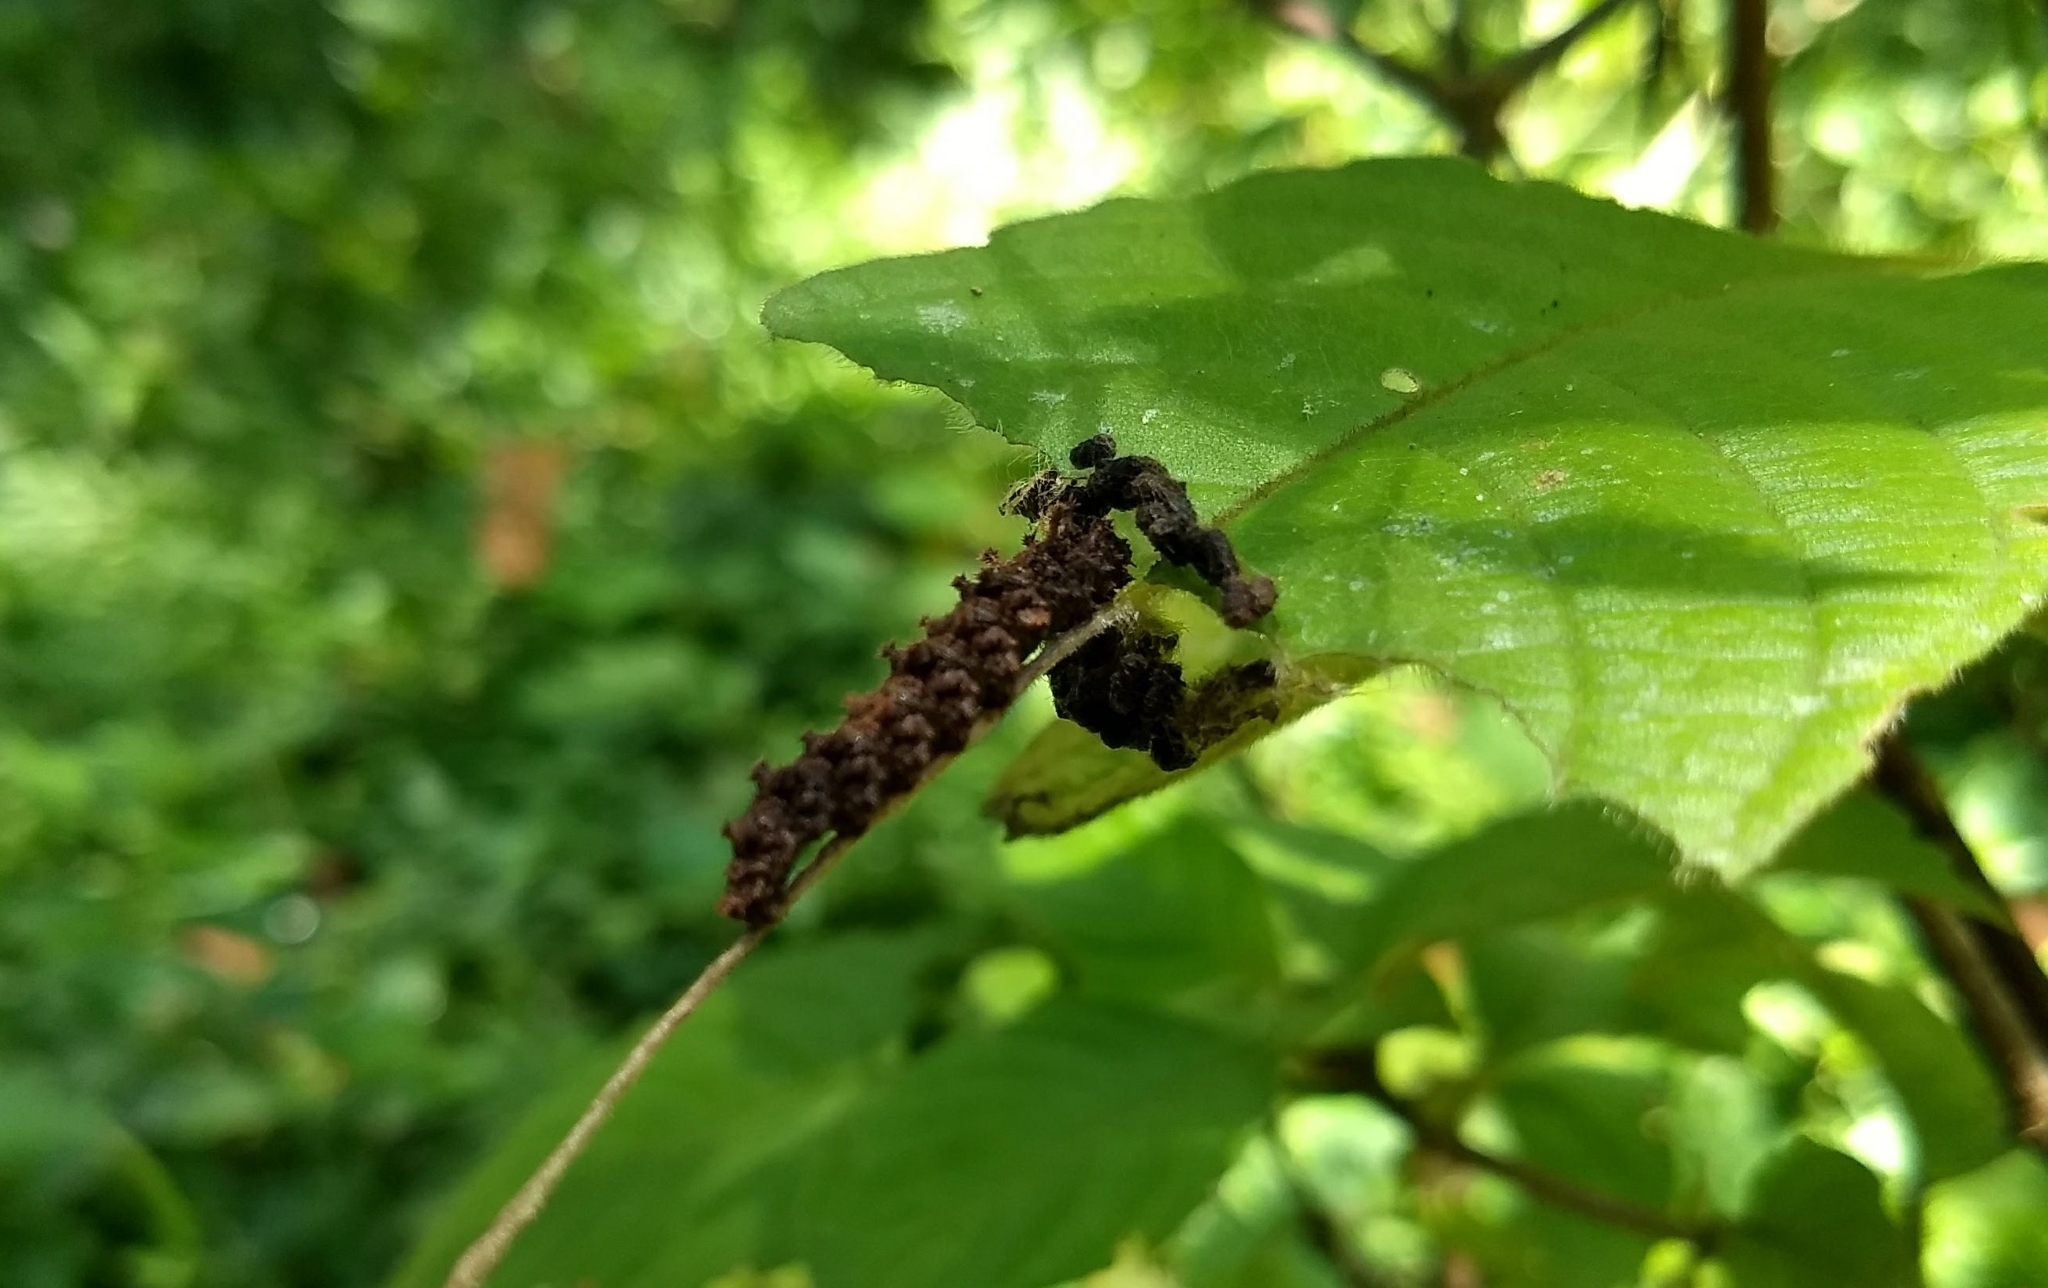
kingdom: Animalia
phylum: Arthropoda
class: Insecta
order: Lepidoptera
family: Nymphalidae
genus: Limenitis
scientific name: Limenitis Moduza procris
